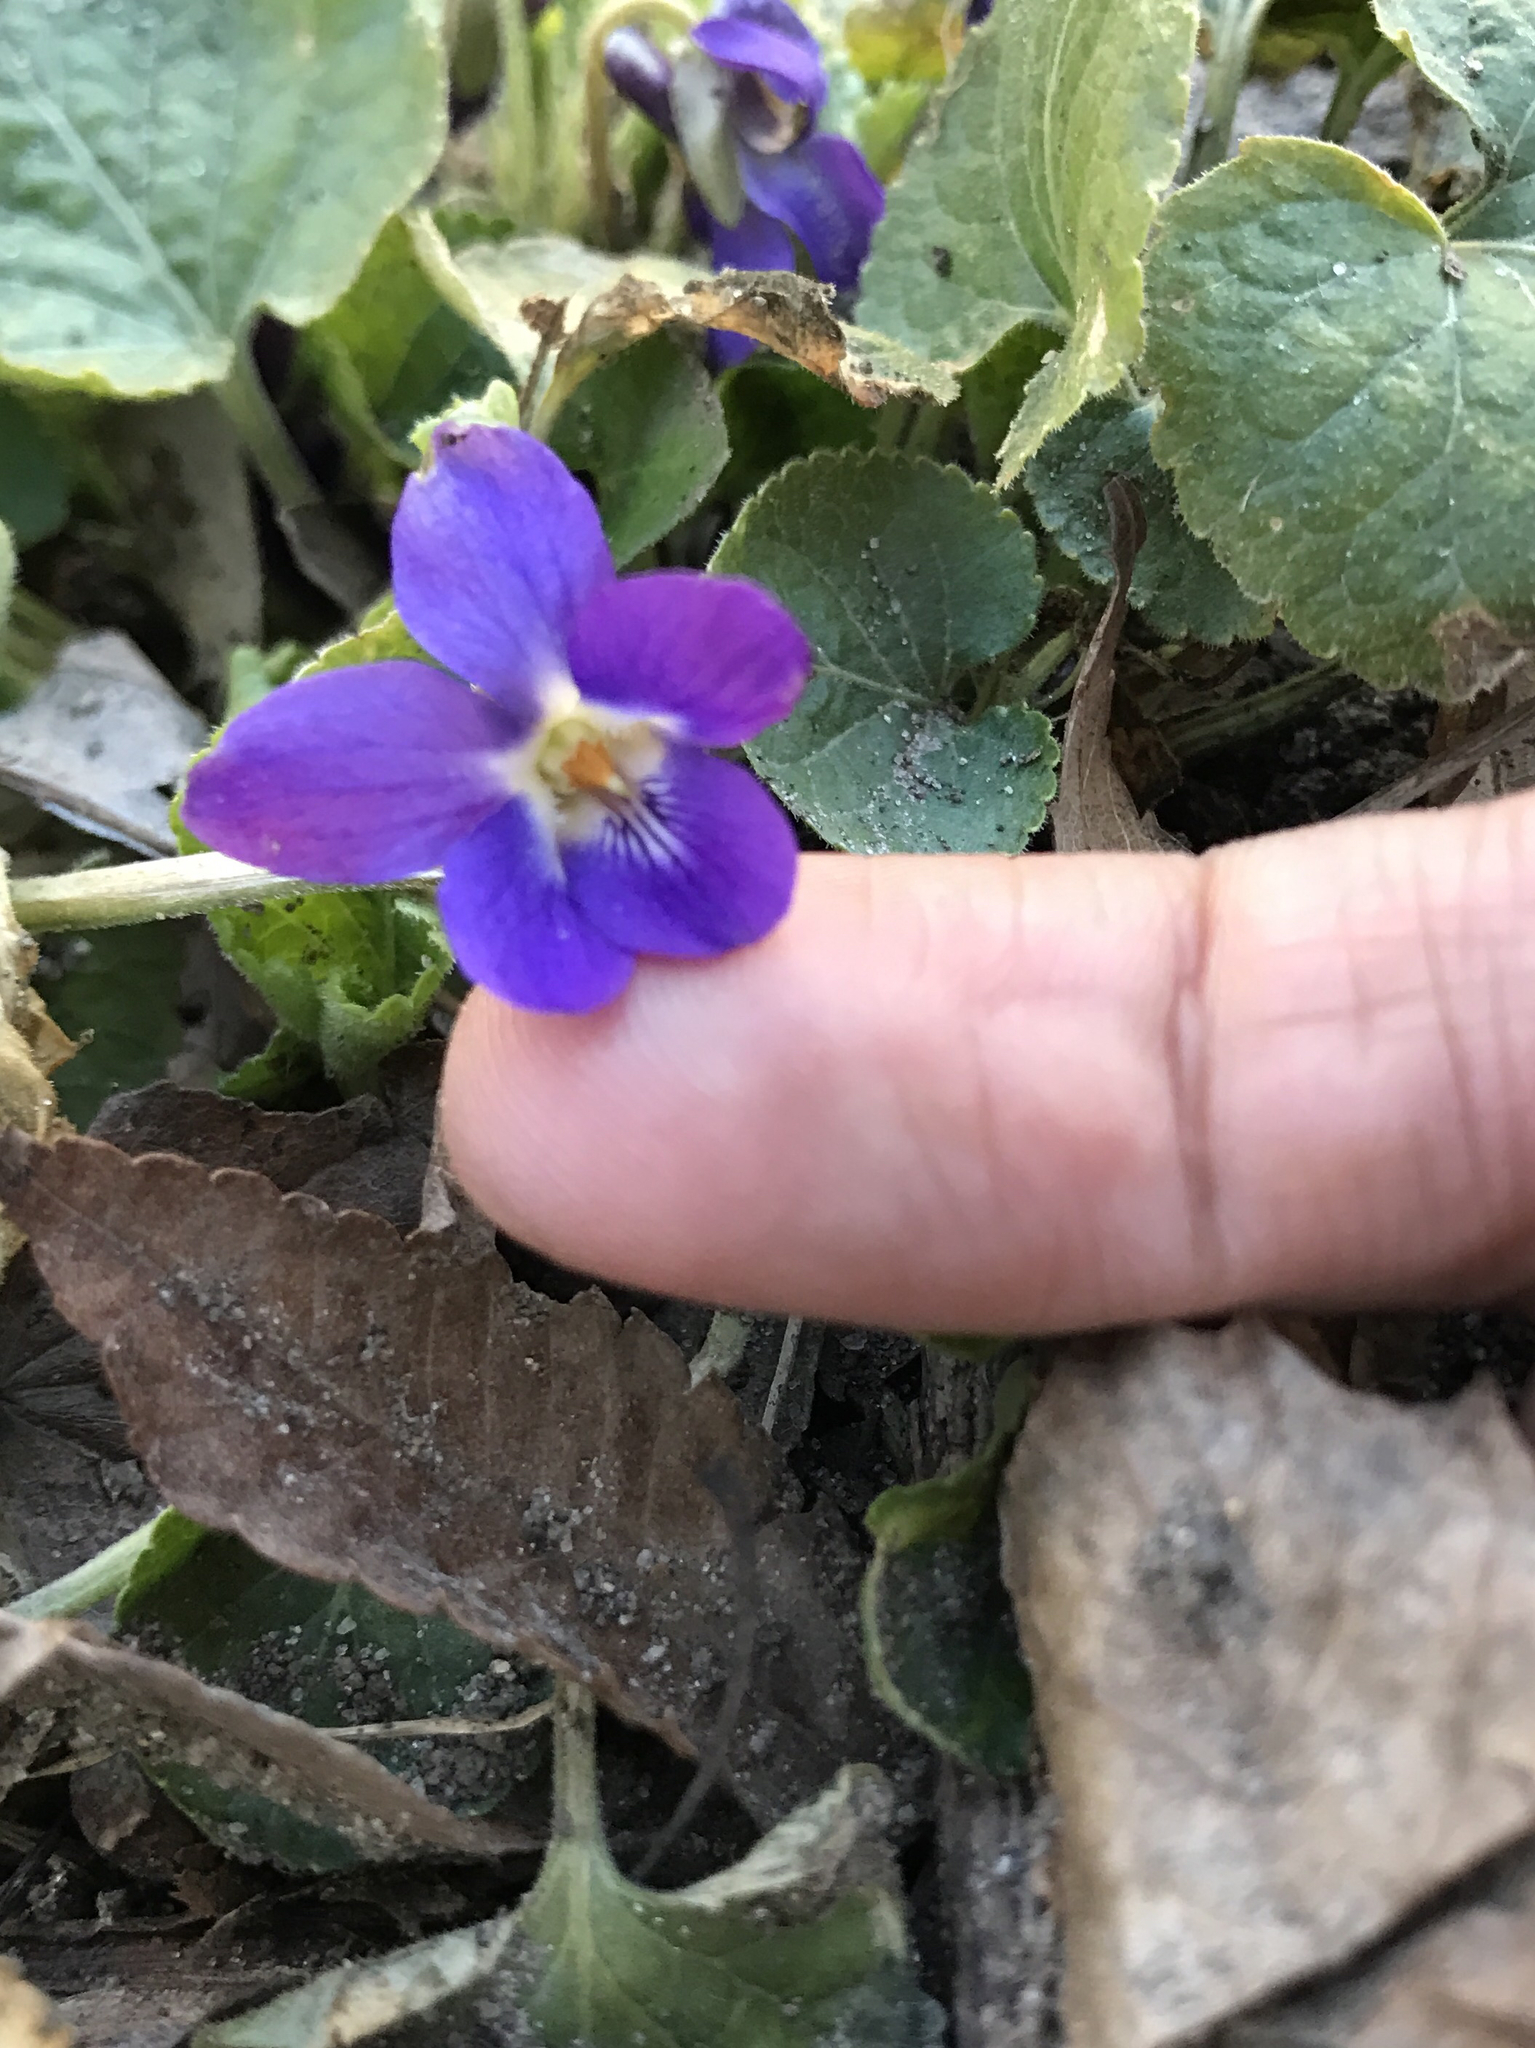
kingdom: Plantae
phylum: Tracheophyta
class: Magnoliopsida
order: Malpighiales
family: Violaceae
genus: Viola
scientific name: Viola odorata
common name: Sweet violet
